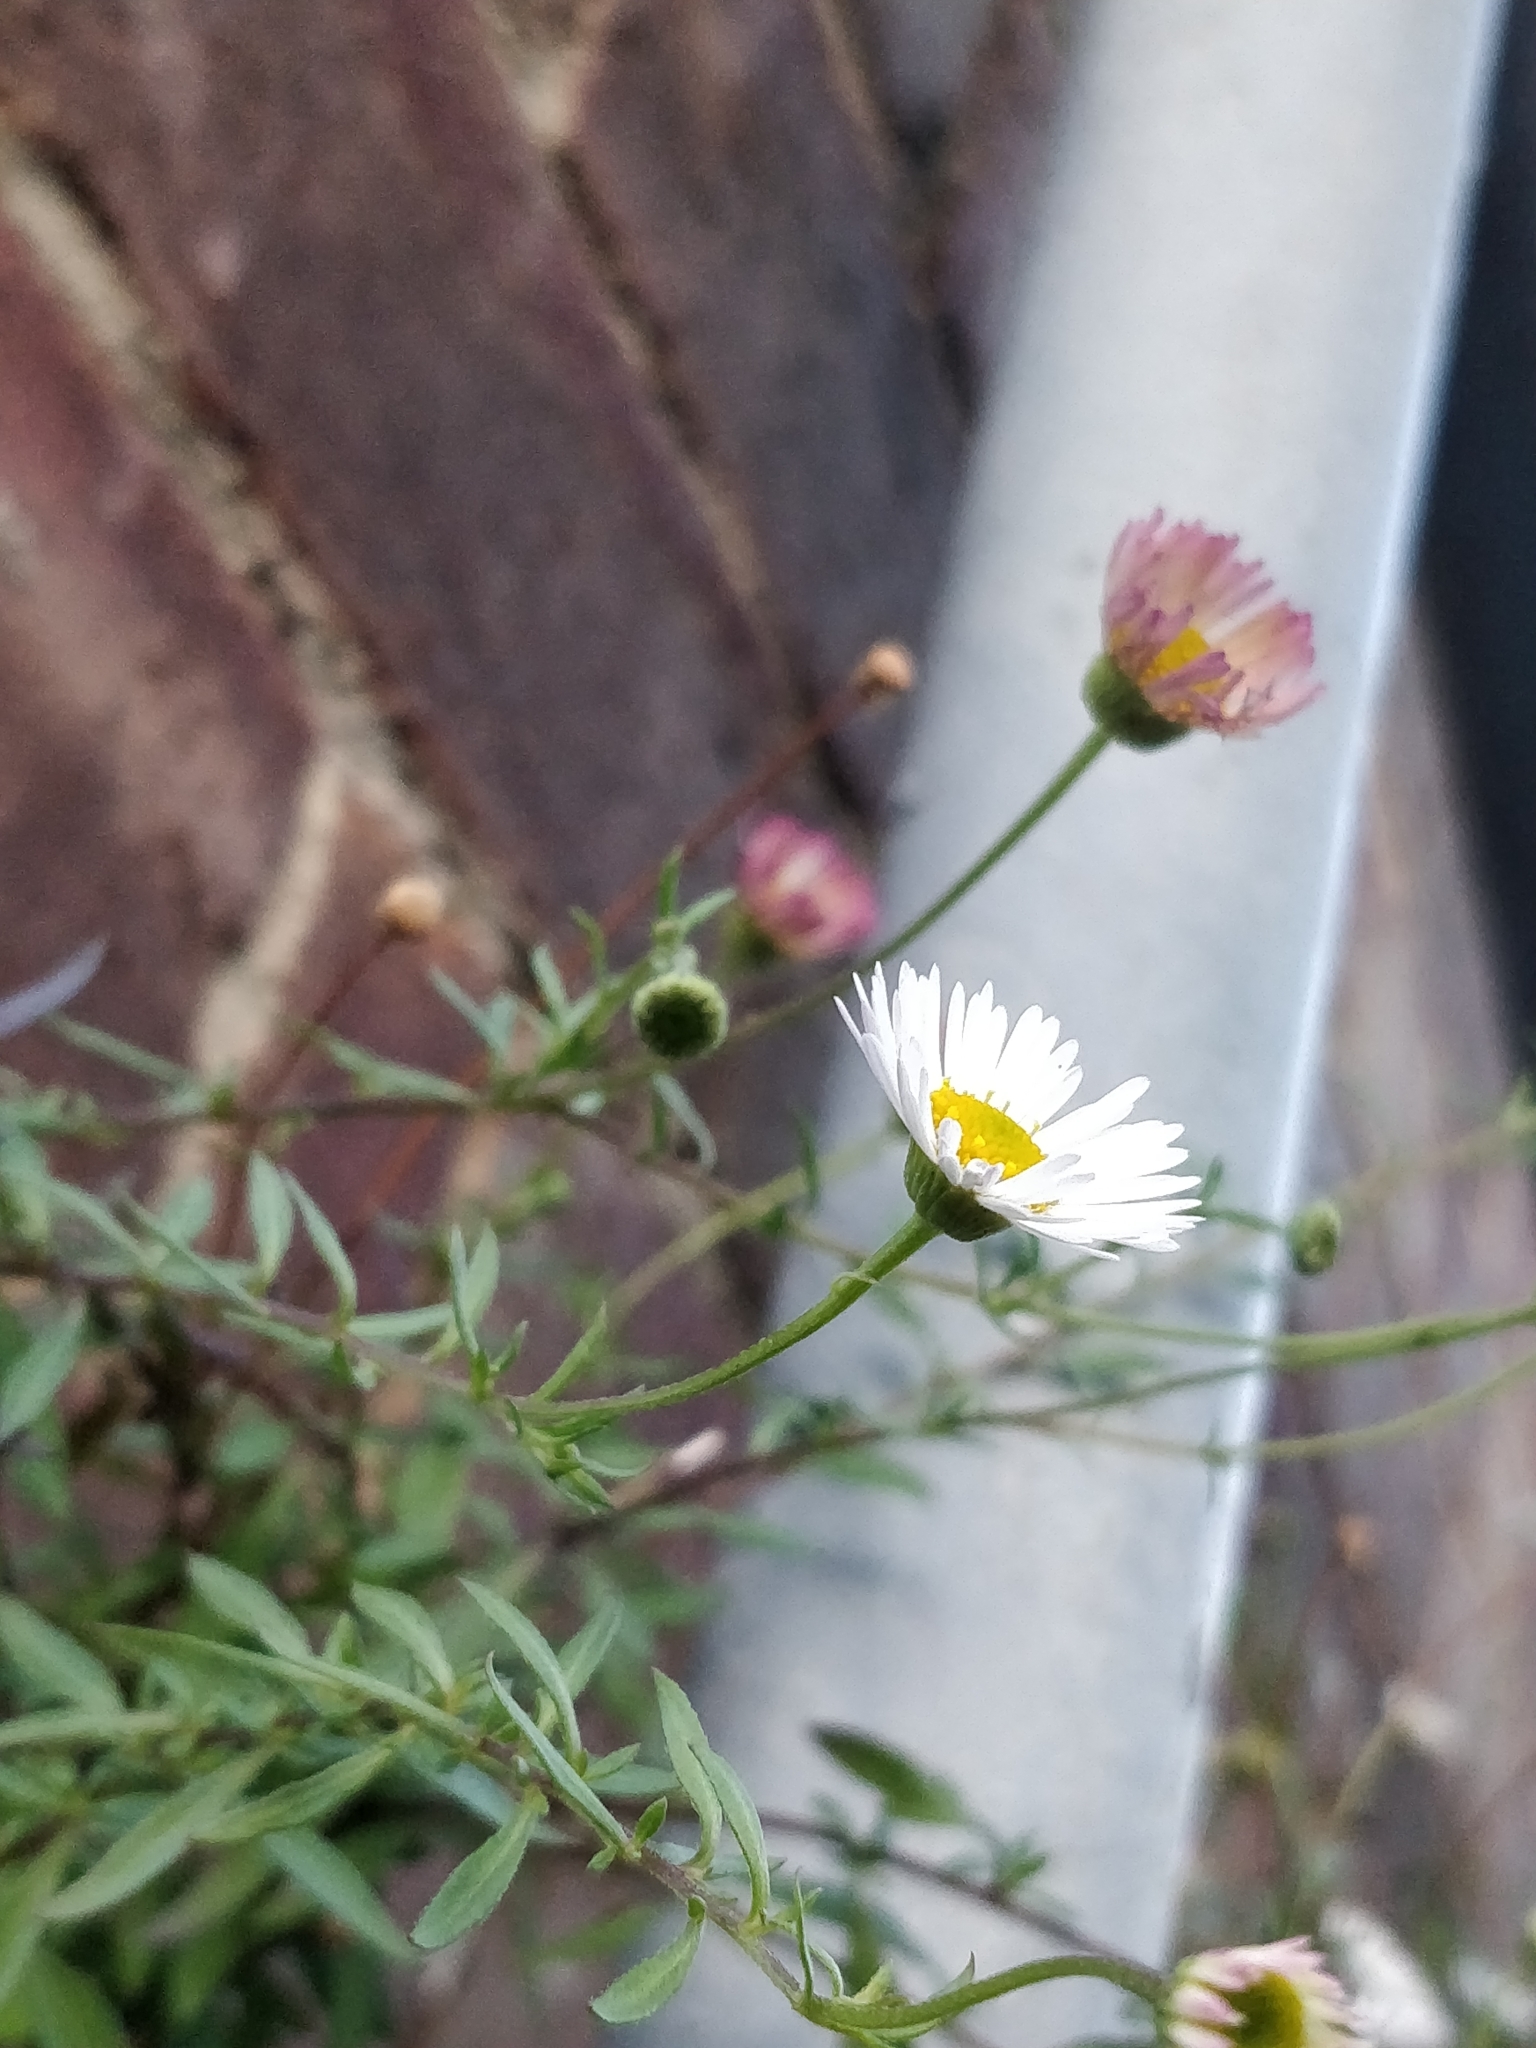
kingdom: Plantae
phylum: Tracheophyta
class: Magnoliopsida
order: Asterales
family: Asteraceae
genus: Erigeron
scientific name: Erigeron karvinskianus
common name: Mexican fleabane
